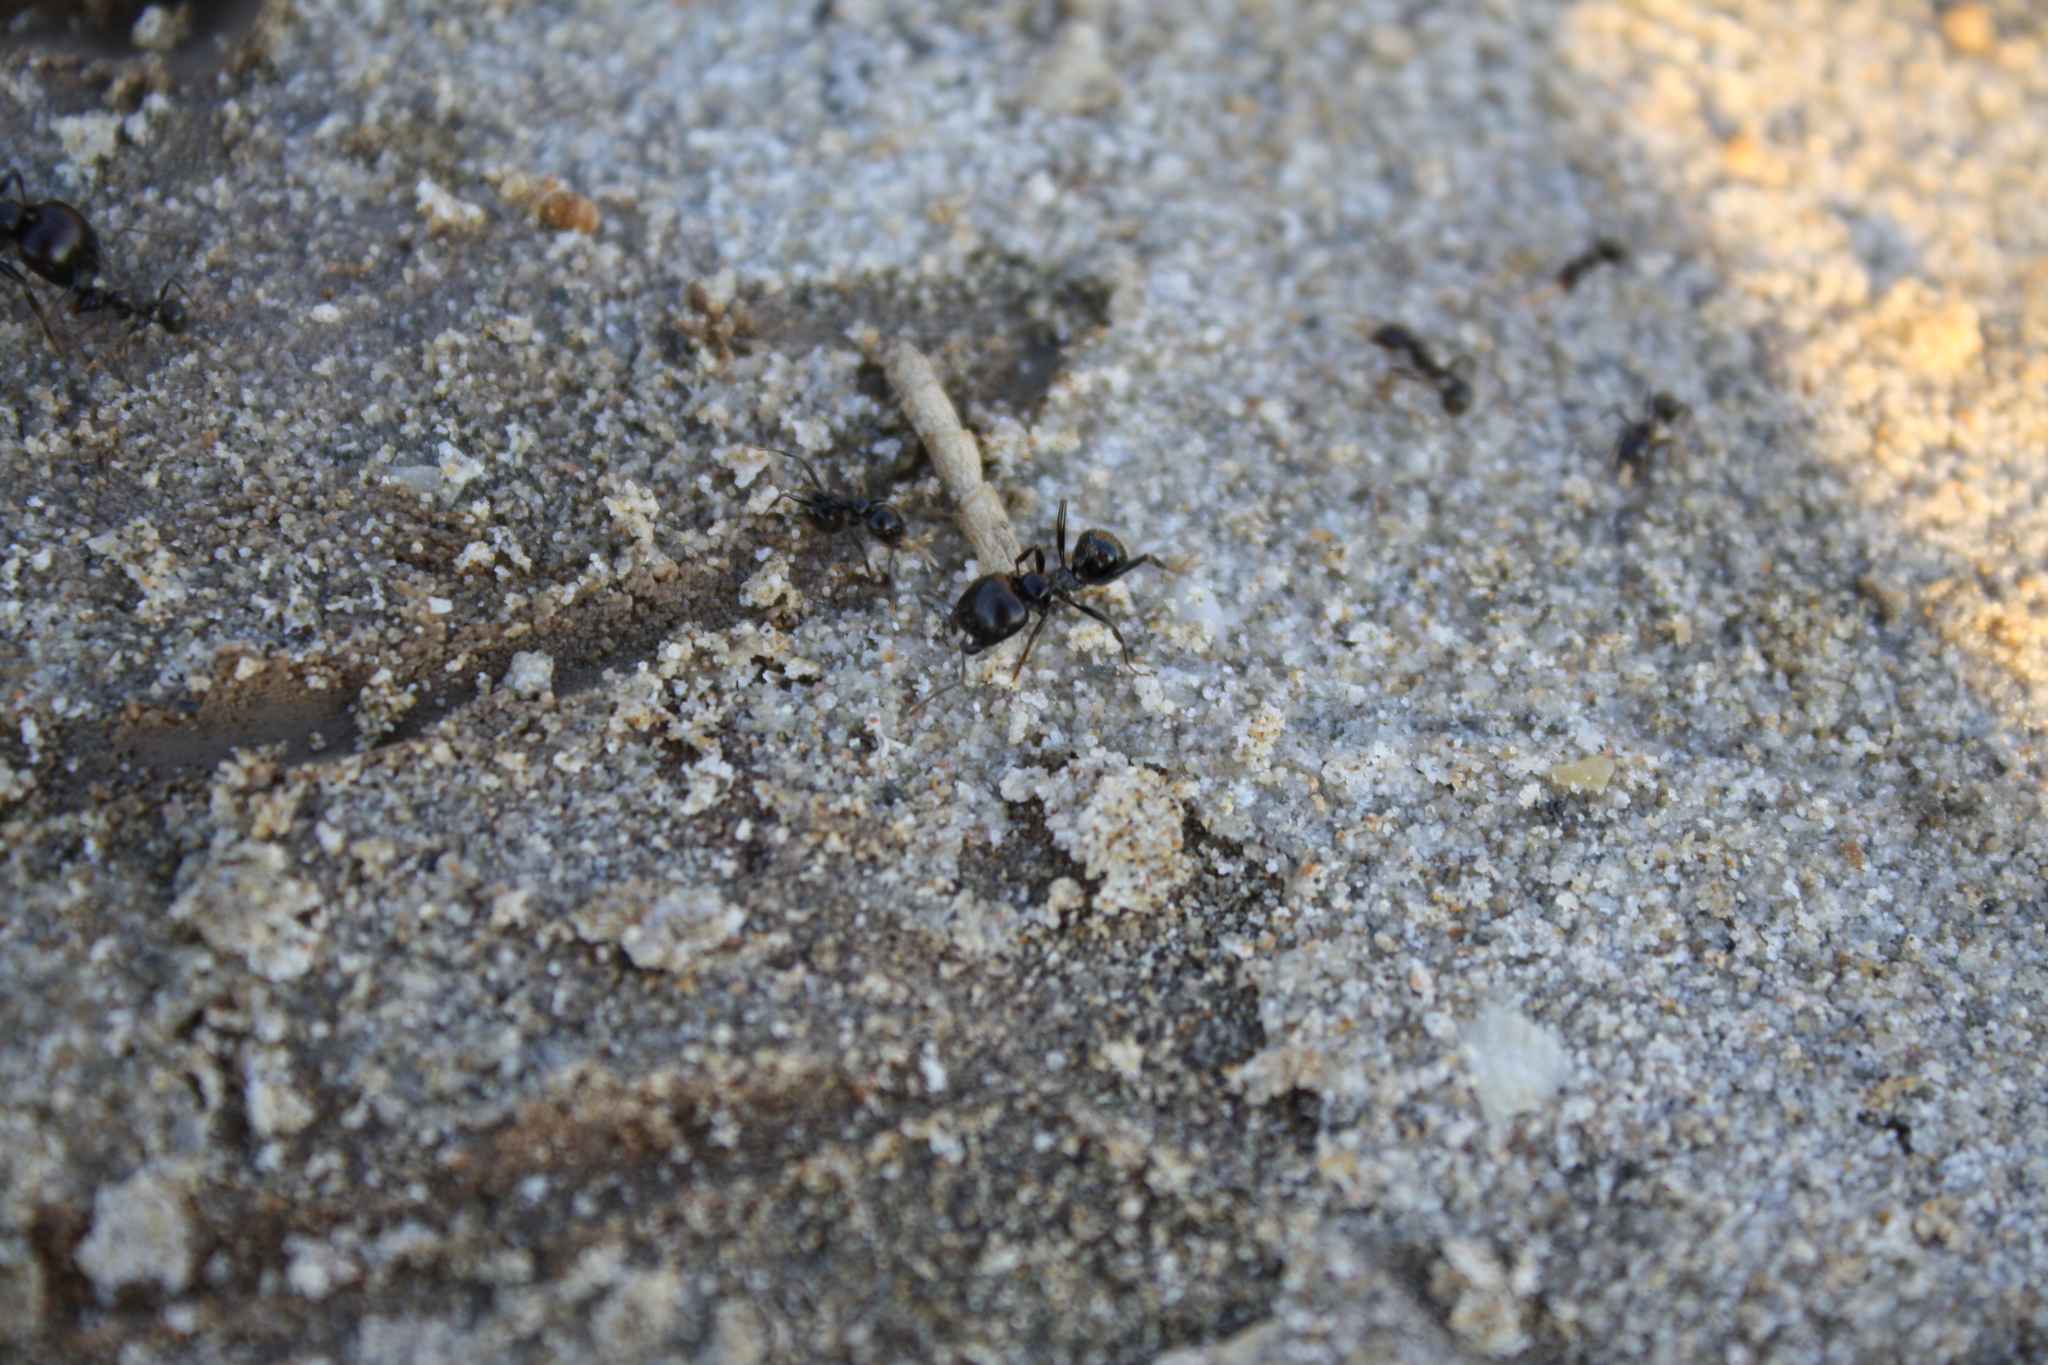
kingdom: Animalia
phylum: Arthropoda
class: Insecta
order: Hymenoptera
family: Formicidae
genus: Messor
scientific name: Messor barbarus
